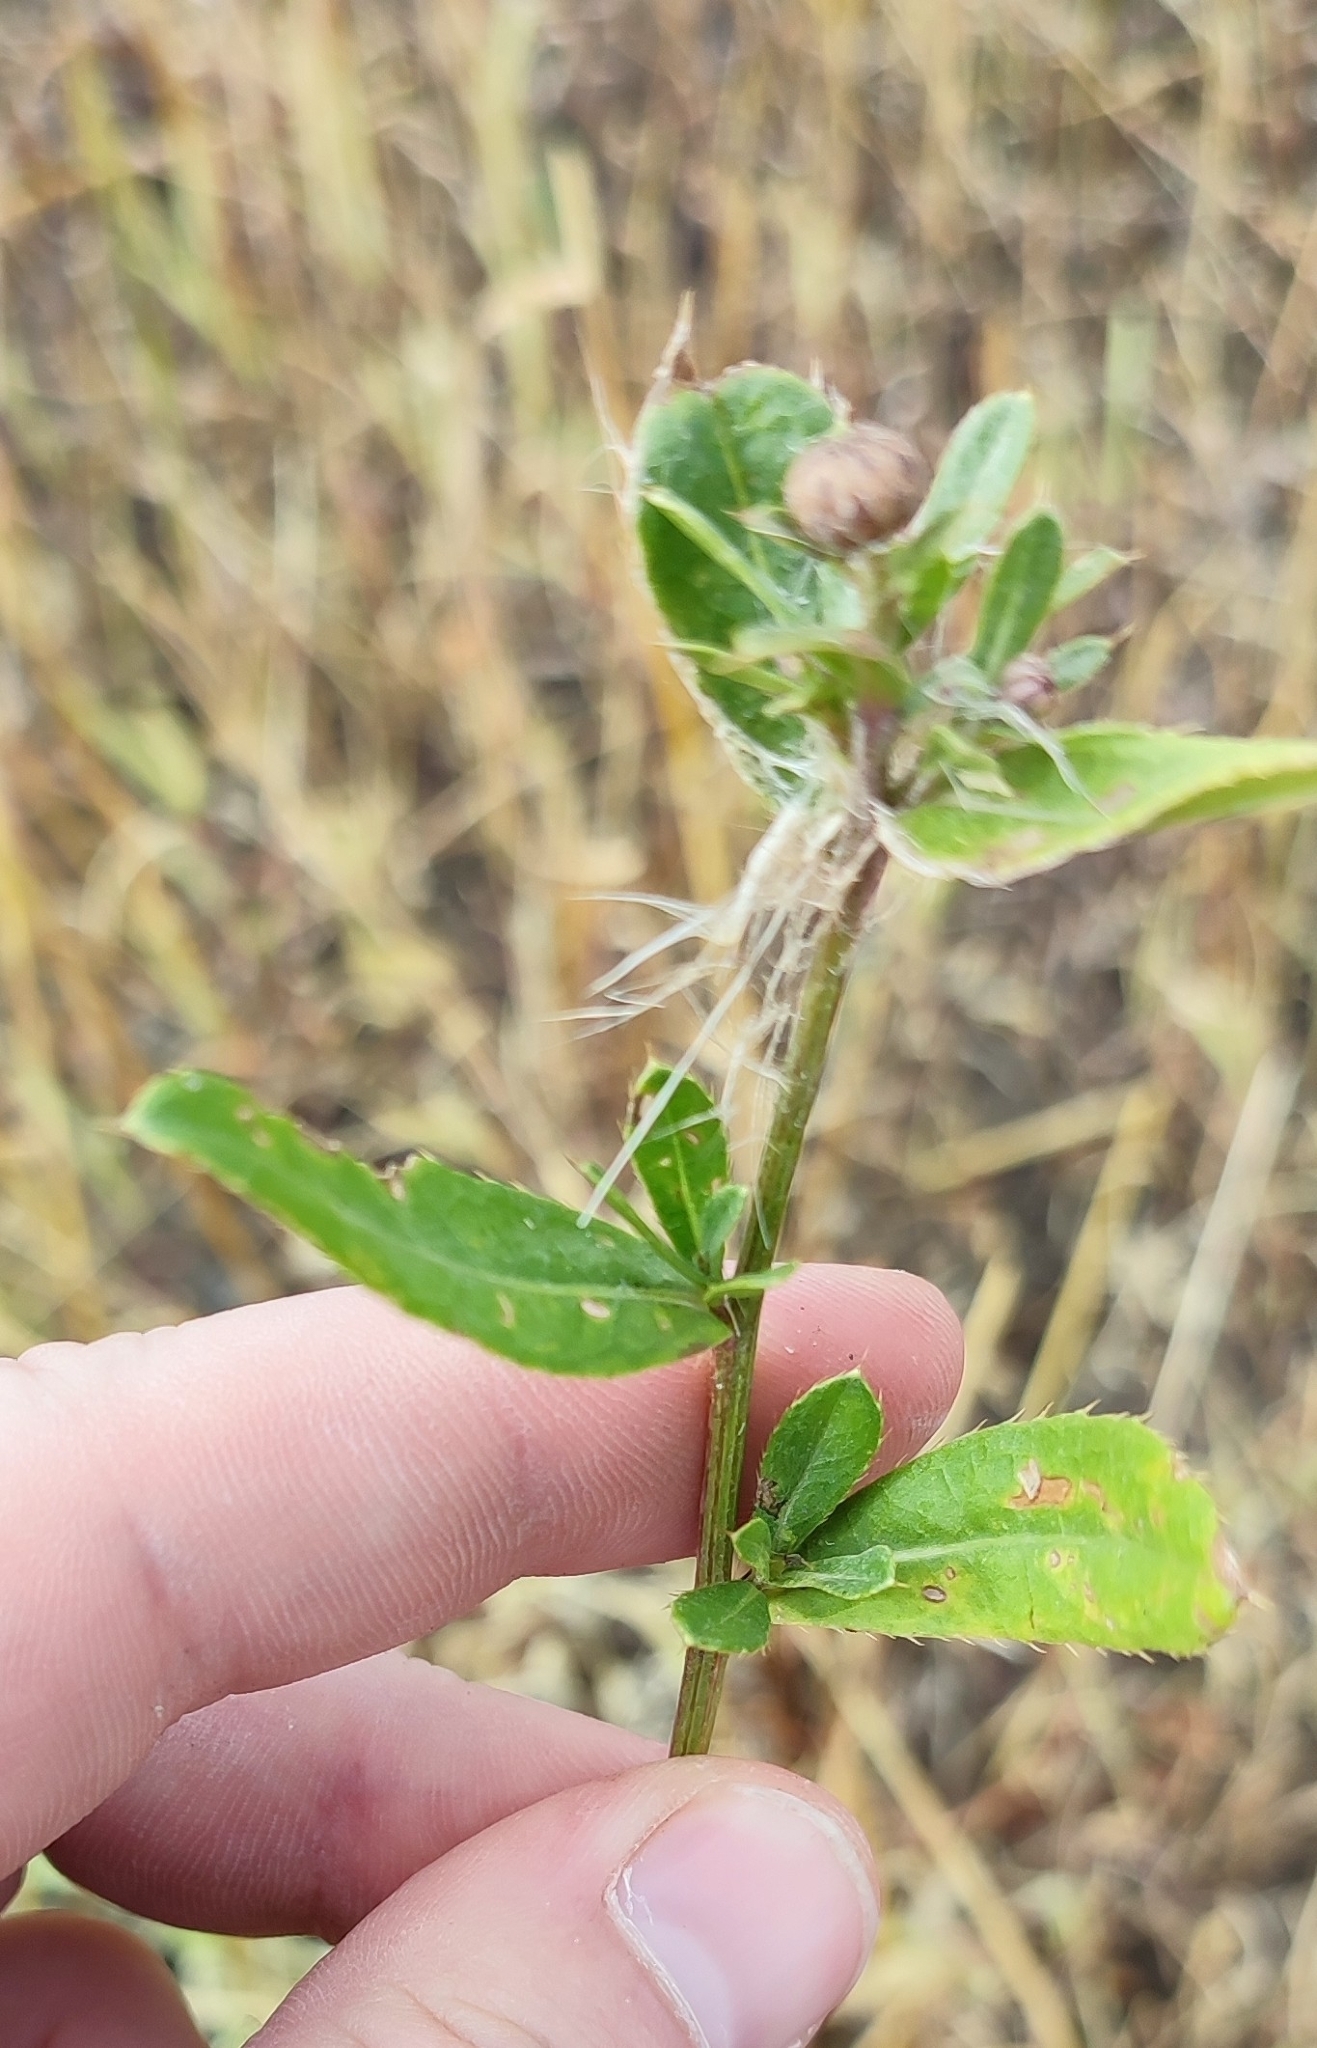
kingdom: Plantae
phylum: Tracheophyta
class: Magnoliopsida
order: Asterales
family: Asteraceae
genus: Cirsium
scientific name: Cirsium arvense
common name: Creeping thistle
